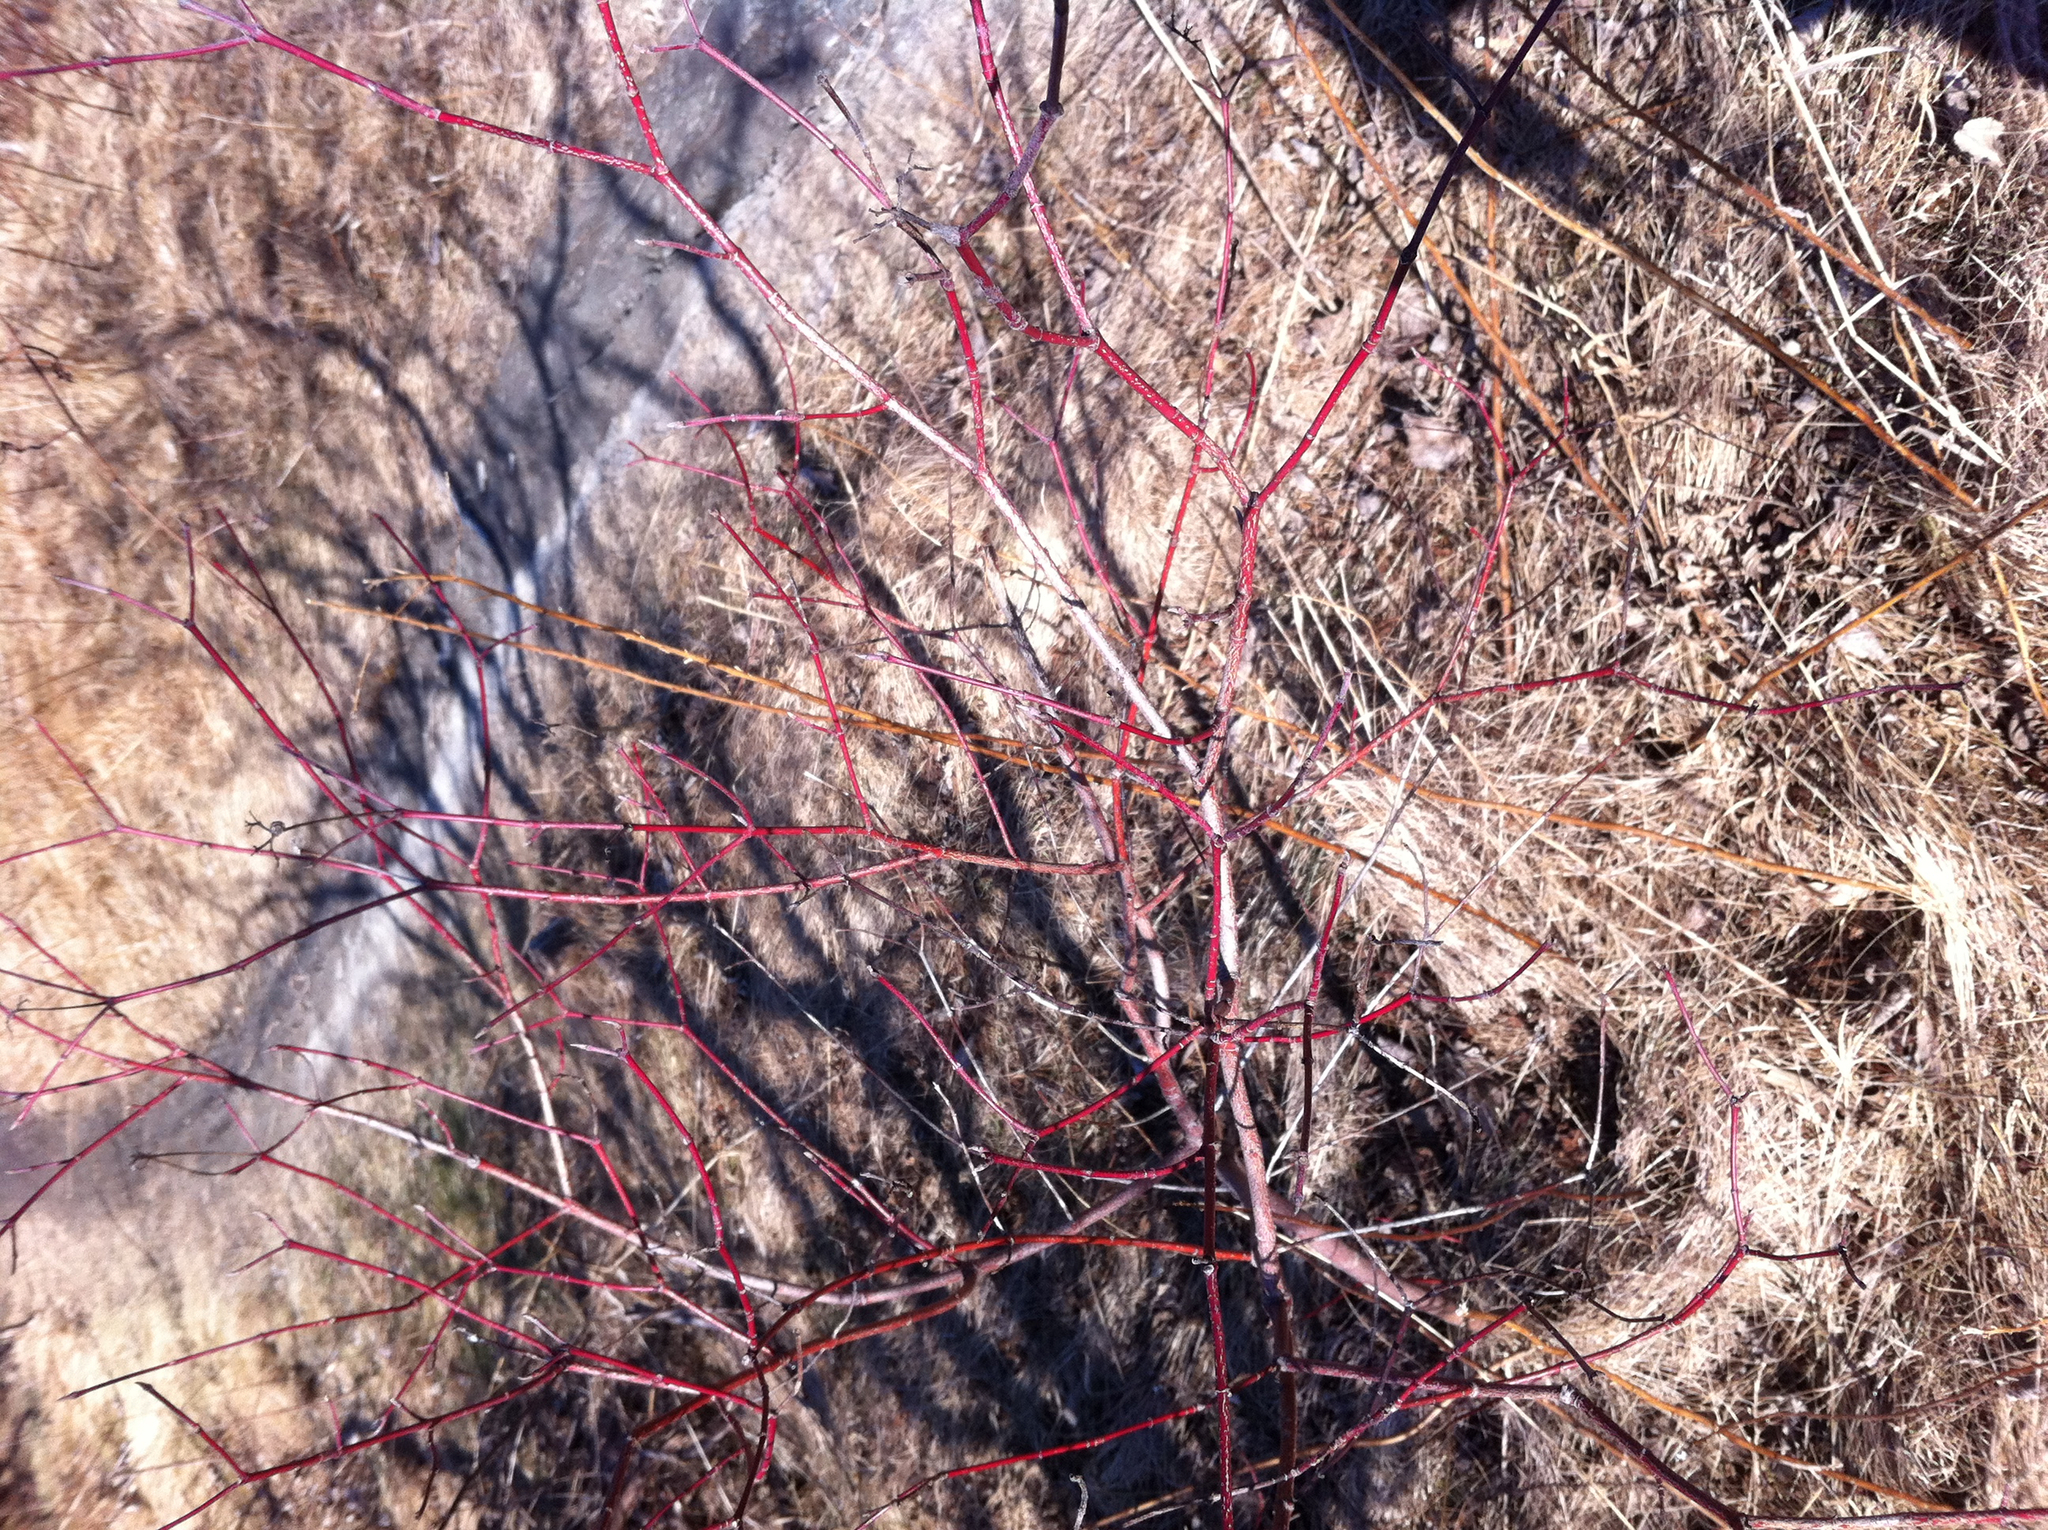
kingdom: Plantae
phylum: Tracheophyta
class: Magnoliopsida
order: Cornales
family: Cornaceae
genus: Cornus
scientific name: Cornus sericea
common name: Red-osier dogwood
